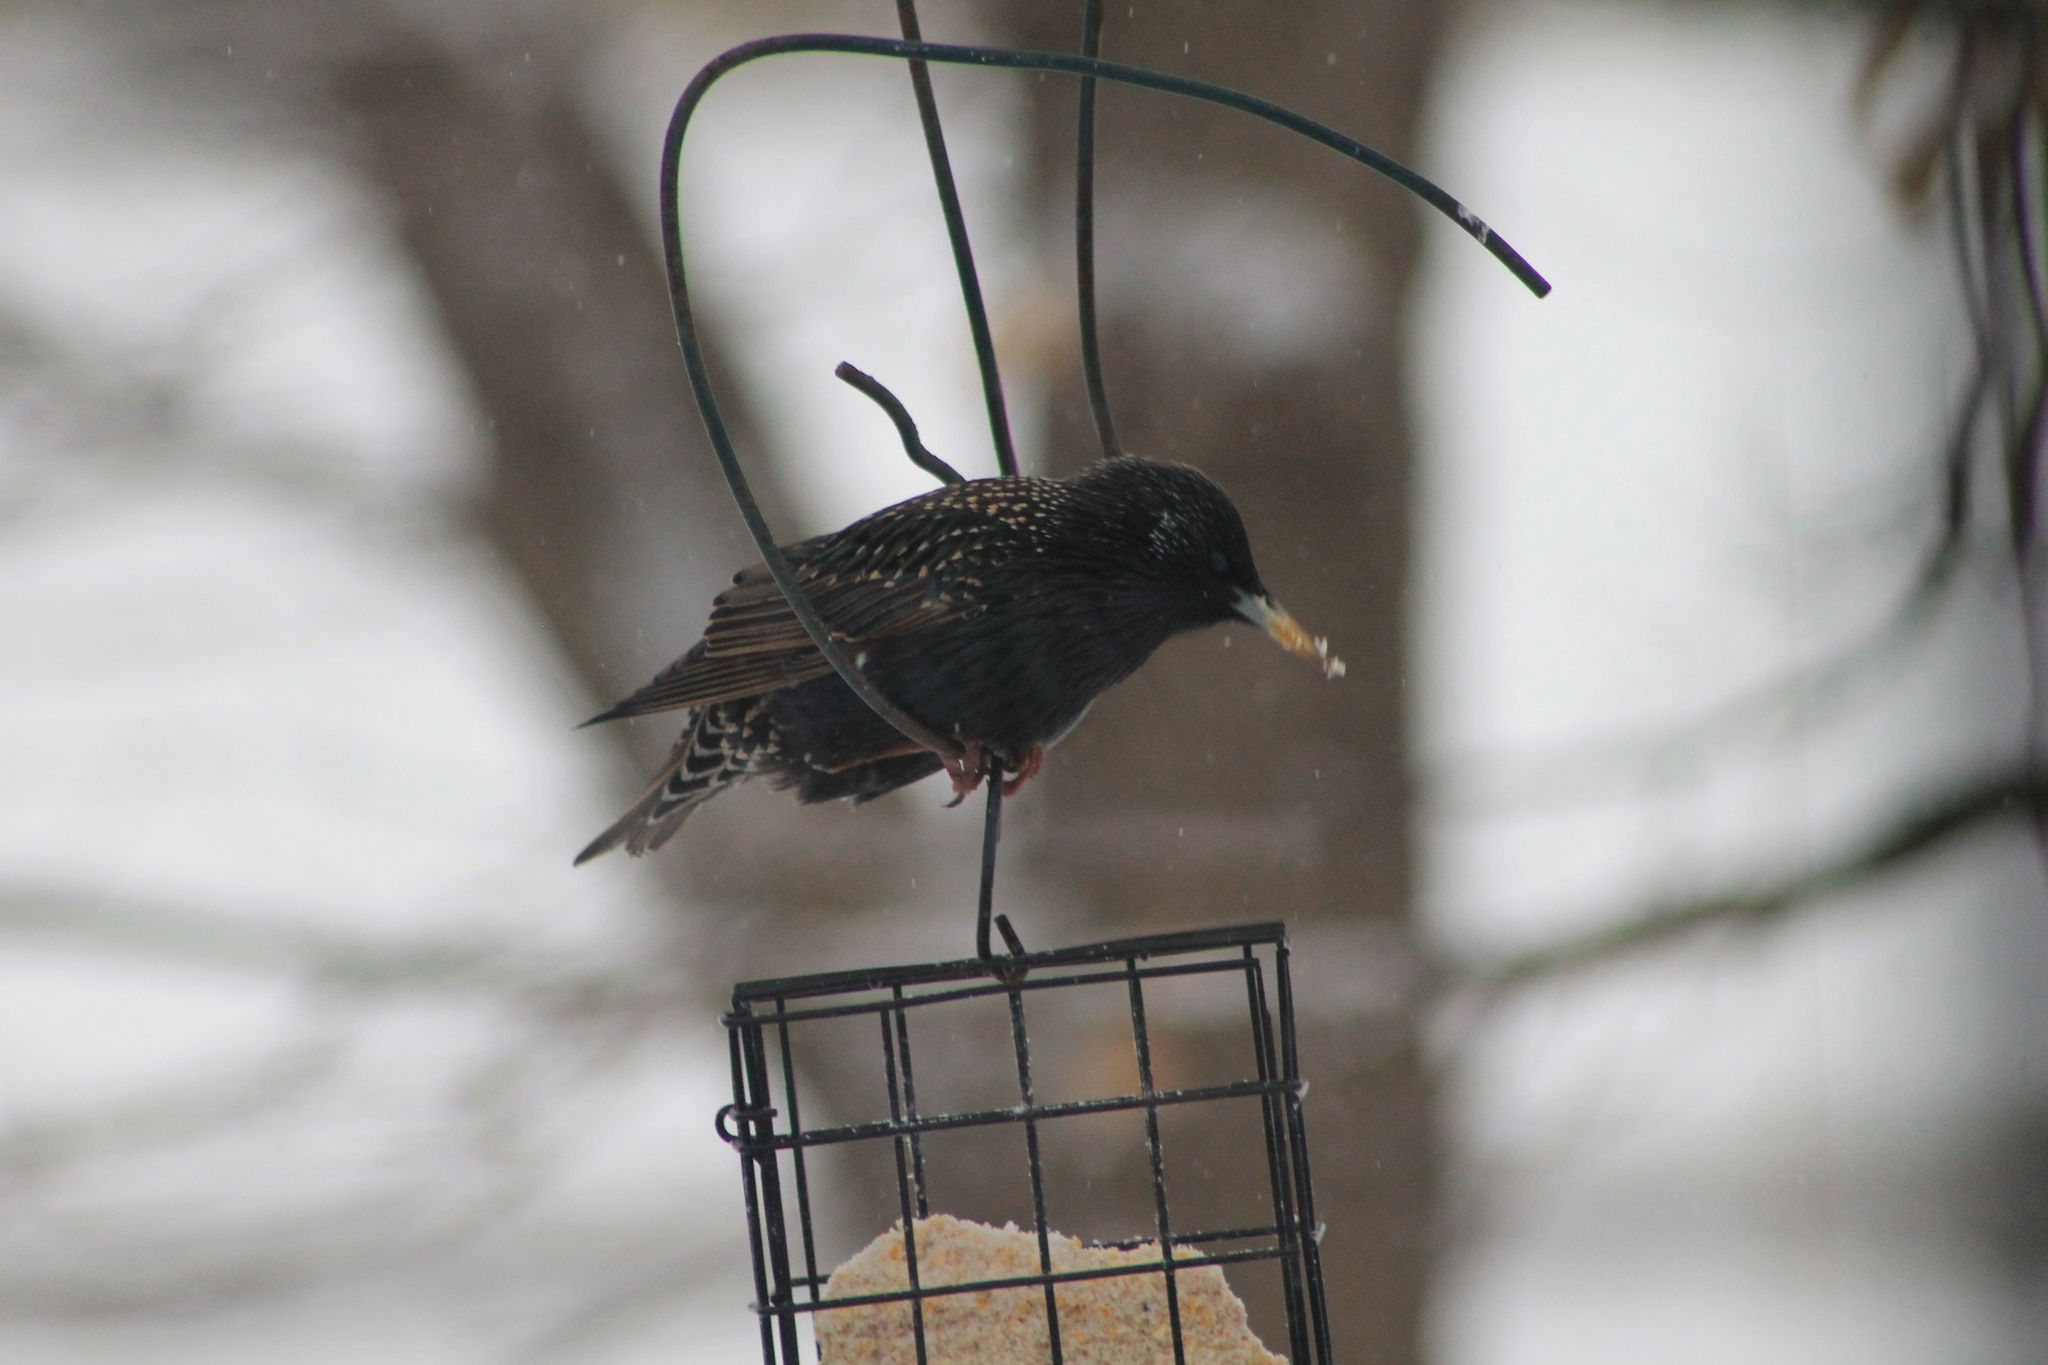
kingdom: Animalia
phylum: Chordata
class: Aves
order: Passeriformes
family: Sturnidae
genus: Sturnus
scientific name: Sturnus vulgaris
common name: Common starling
